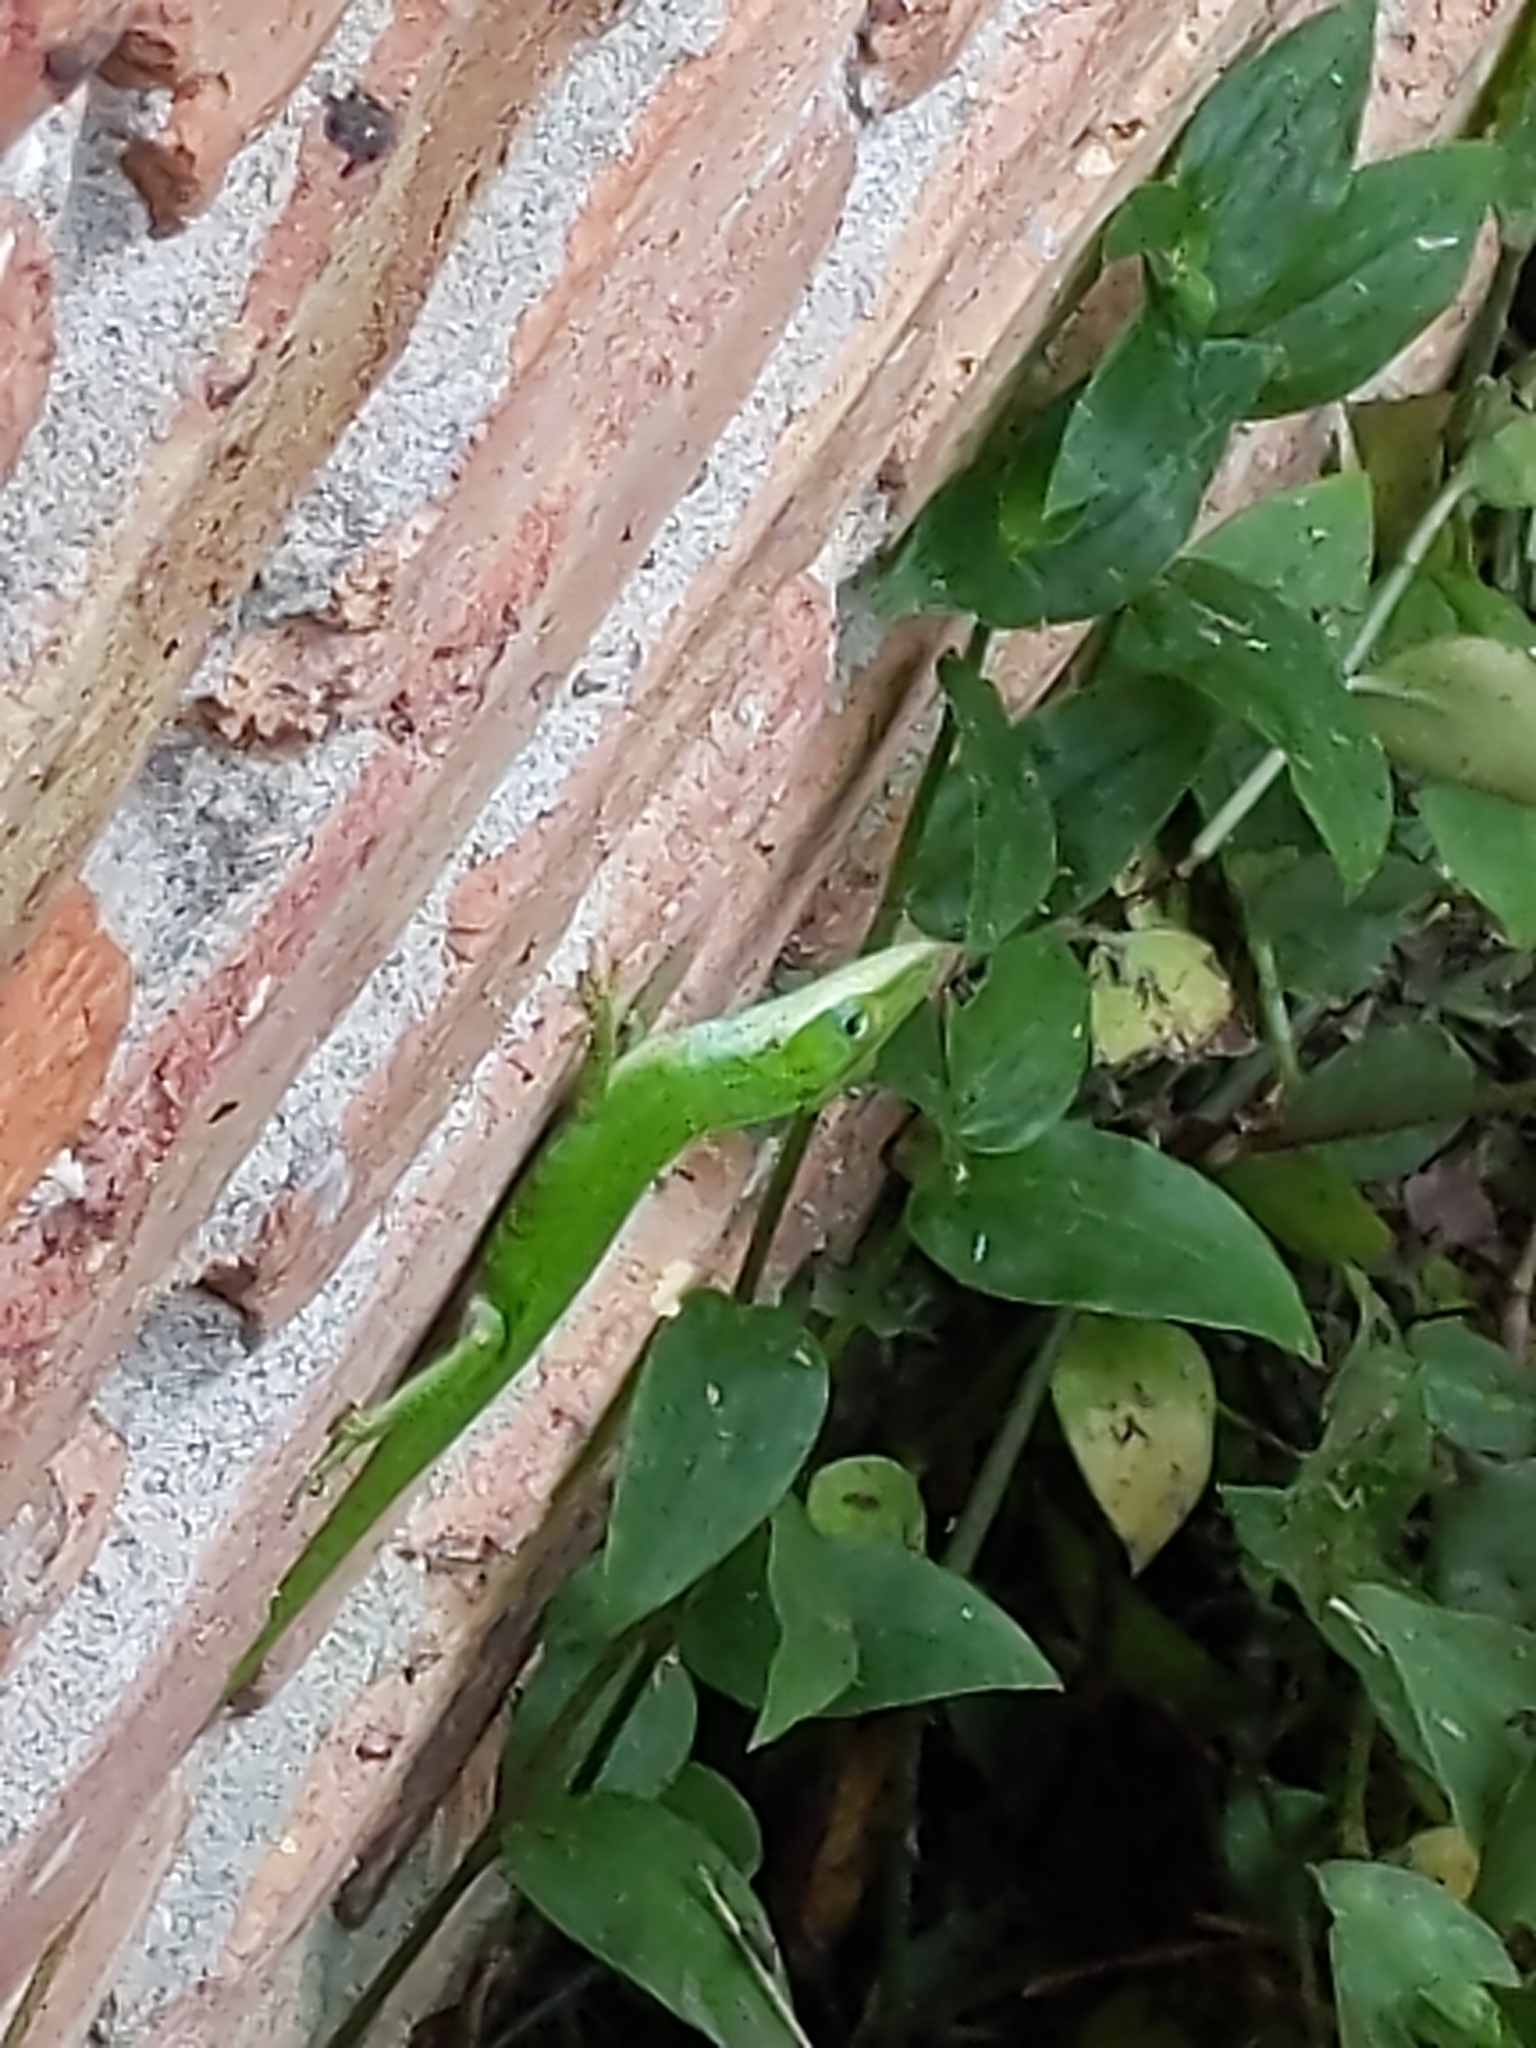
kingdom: Animalia
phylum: Chordata
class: Squamata
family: Dactyloidae
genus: Anolis
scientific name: Anolis carolinensis
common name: Green anole
